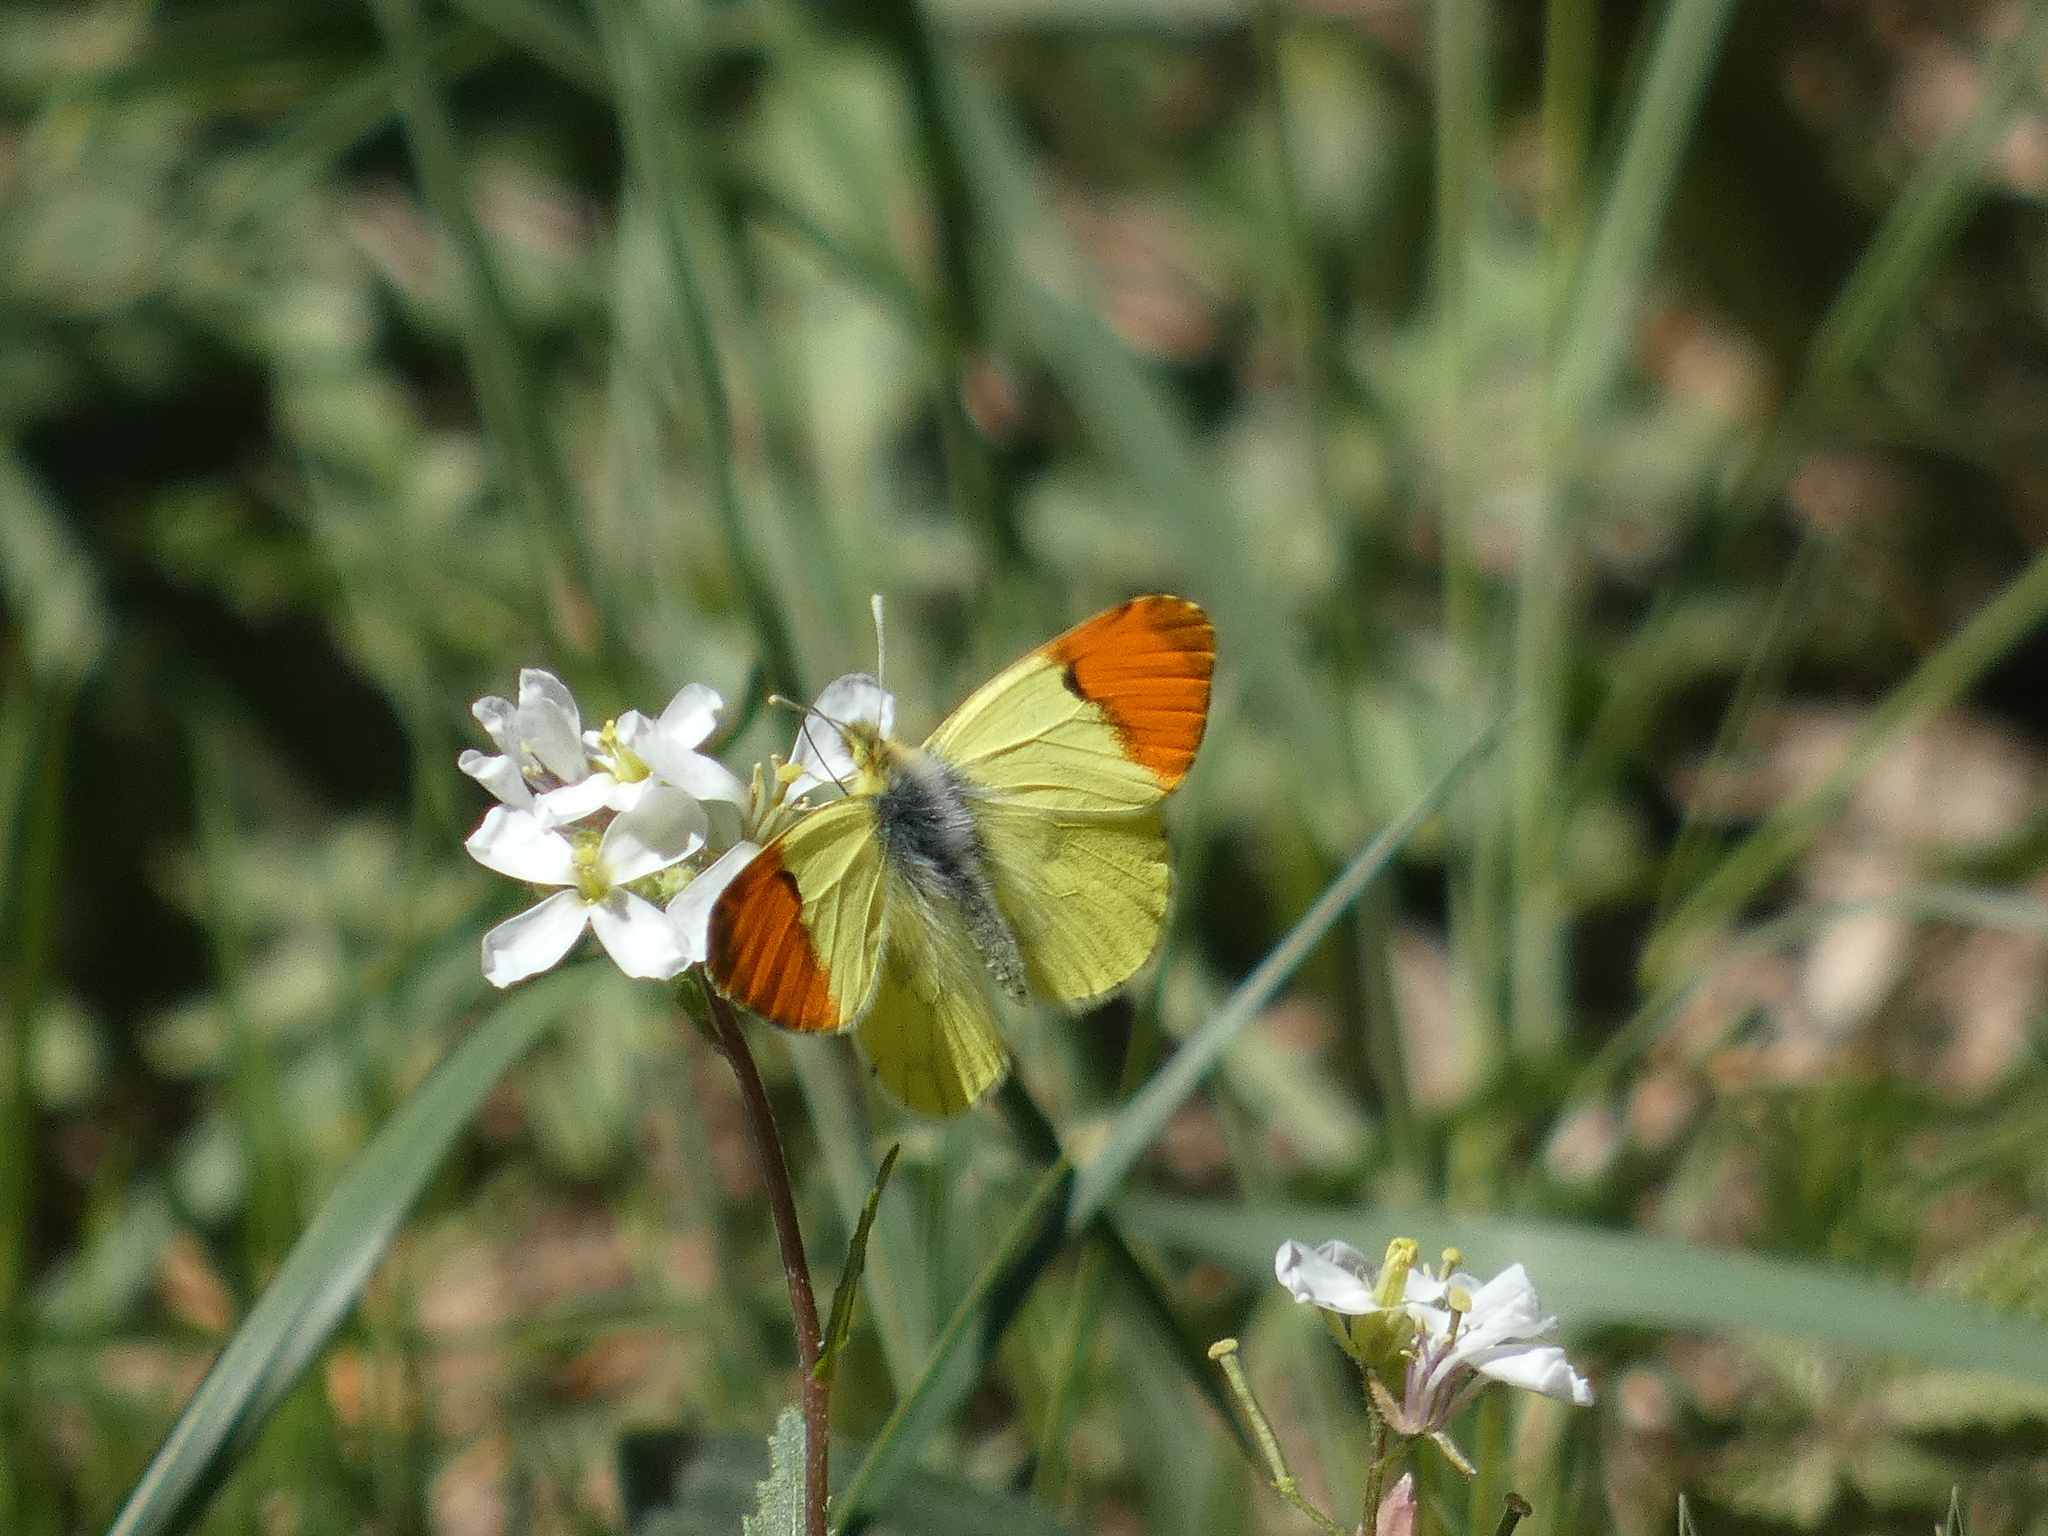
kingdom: Animalia
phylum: Arthropoda
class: Insecta
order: Lepidoptera
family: Pieridae
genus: Anthocharis
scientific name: Anthocharis euphenoides
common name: Provence orange-tip
